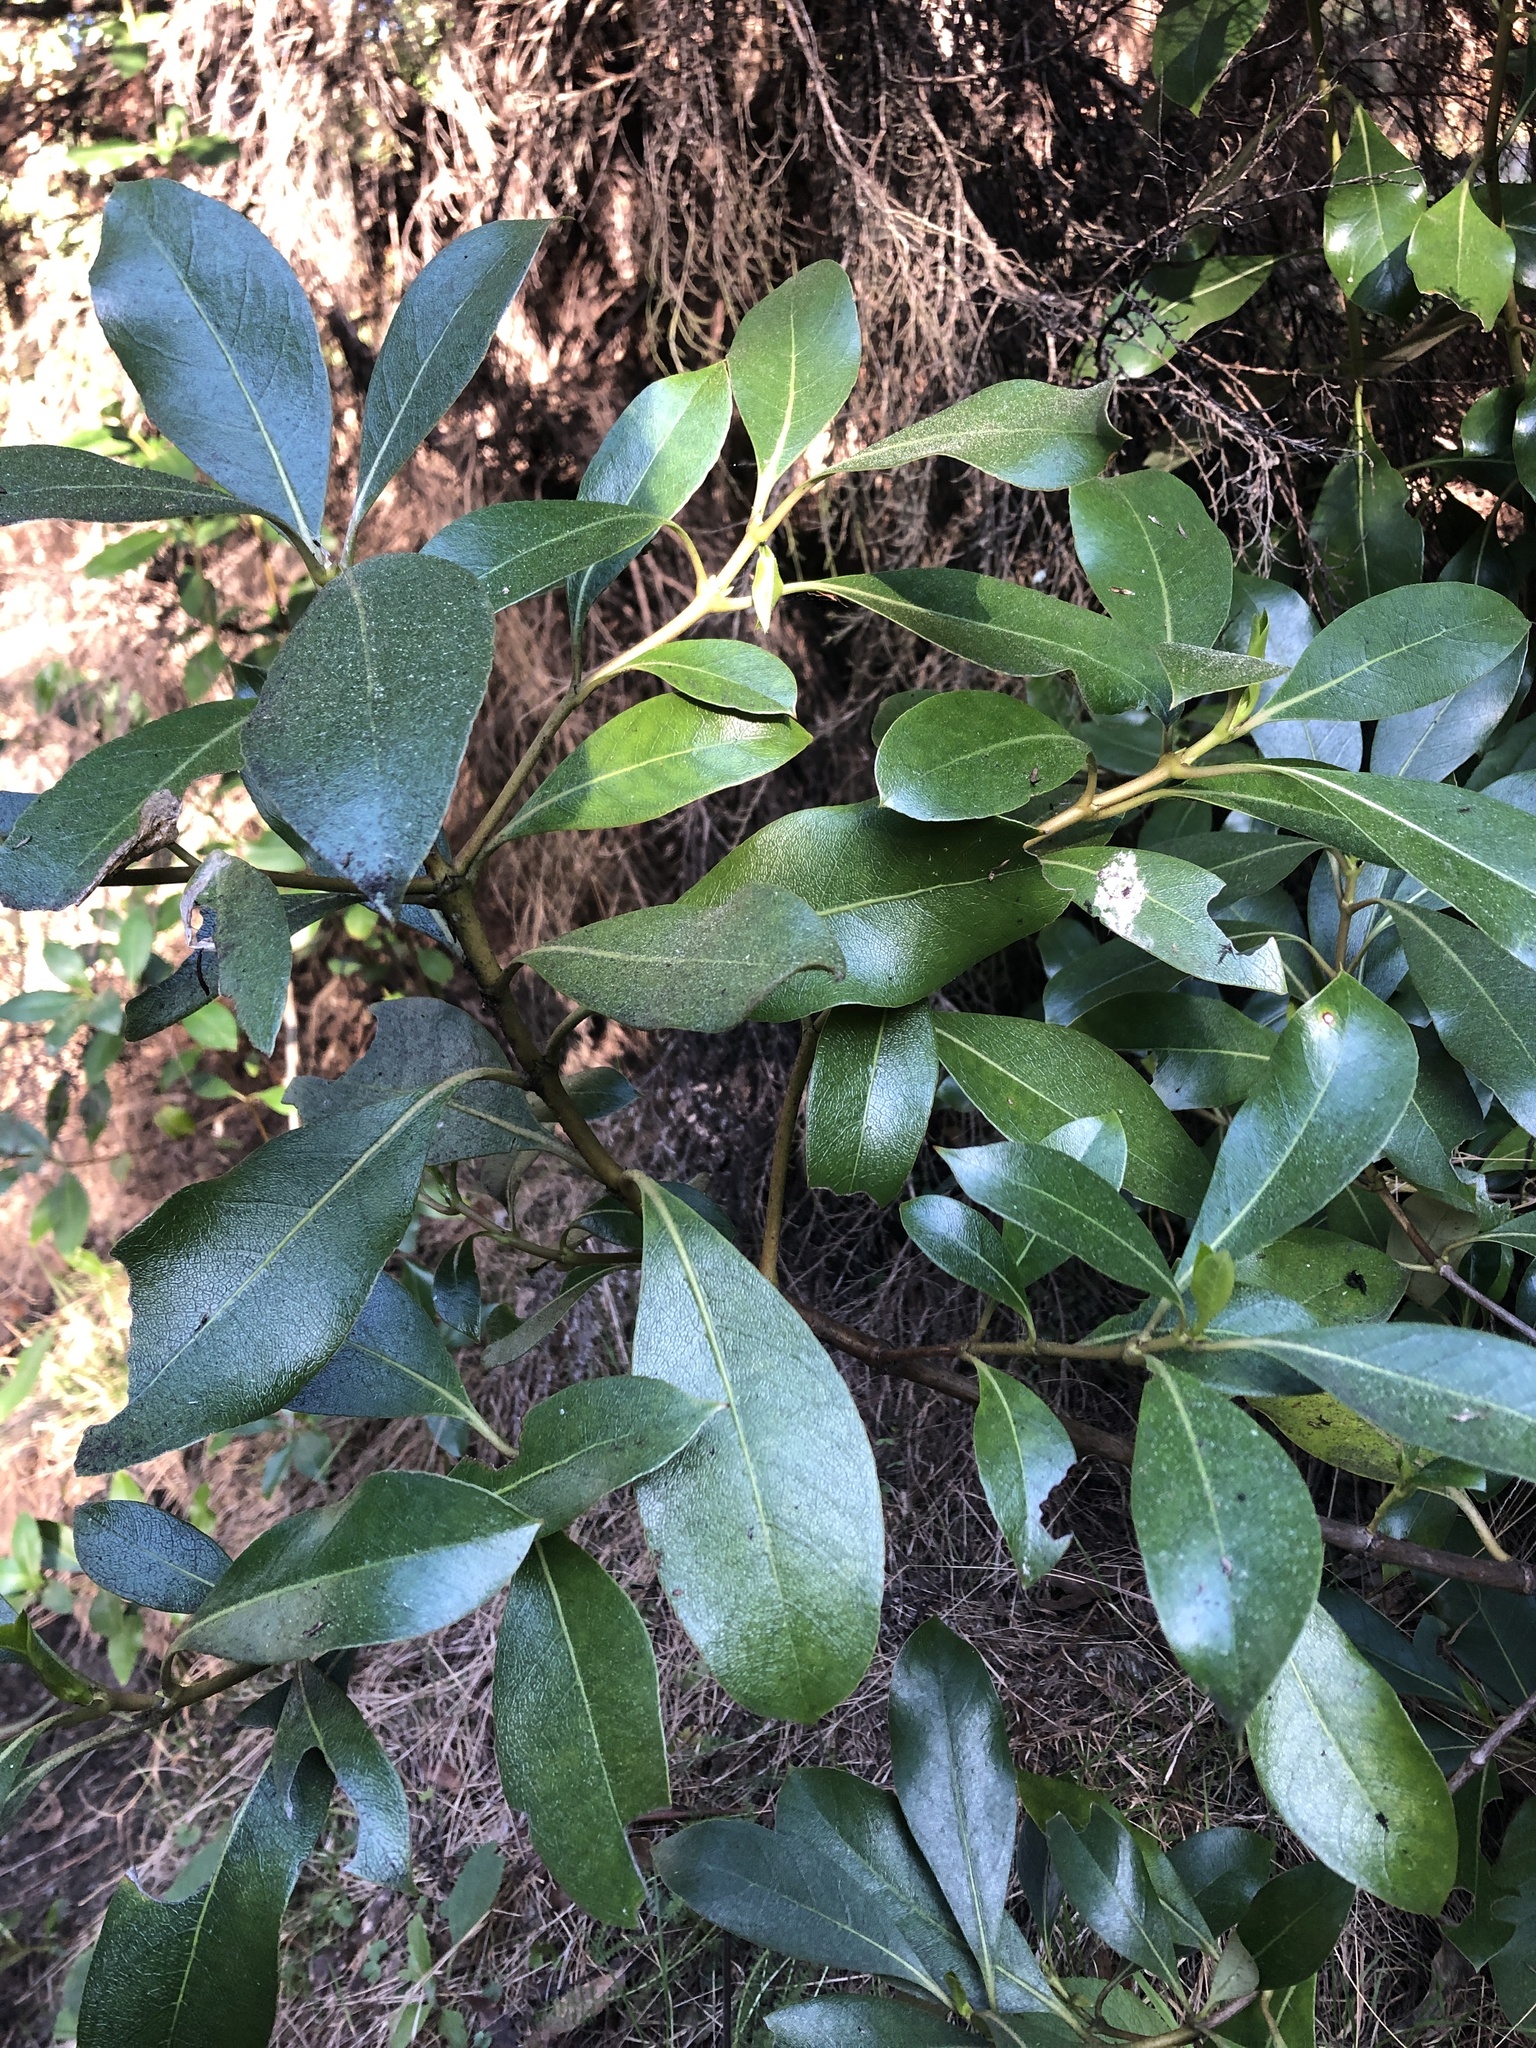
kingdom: Plantae
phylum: Tracheophyta
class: Magnoliopsida
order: Gentianales
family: Rubiaceae
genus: Coprosma
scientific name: Coprosma lucida
